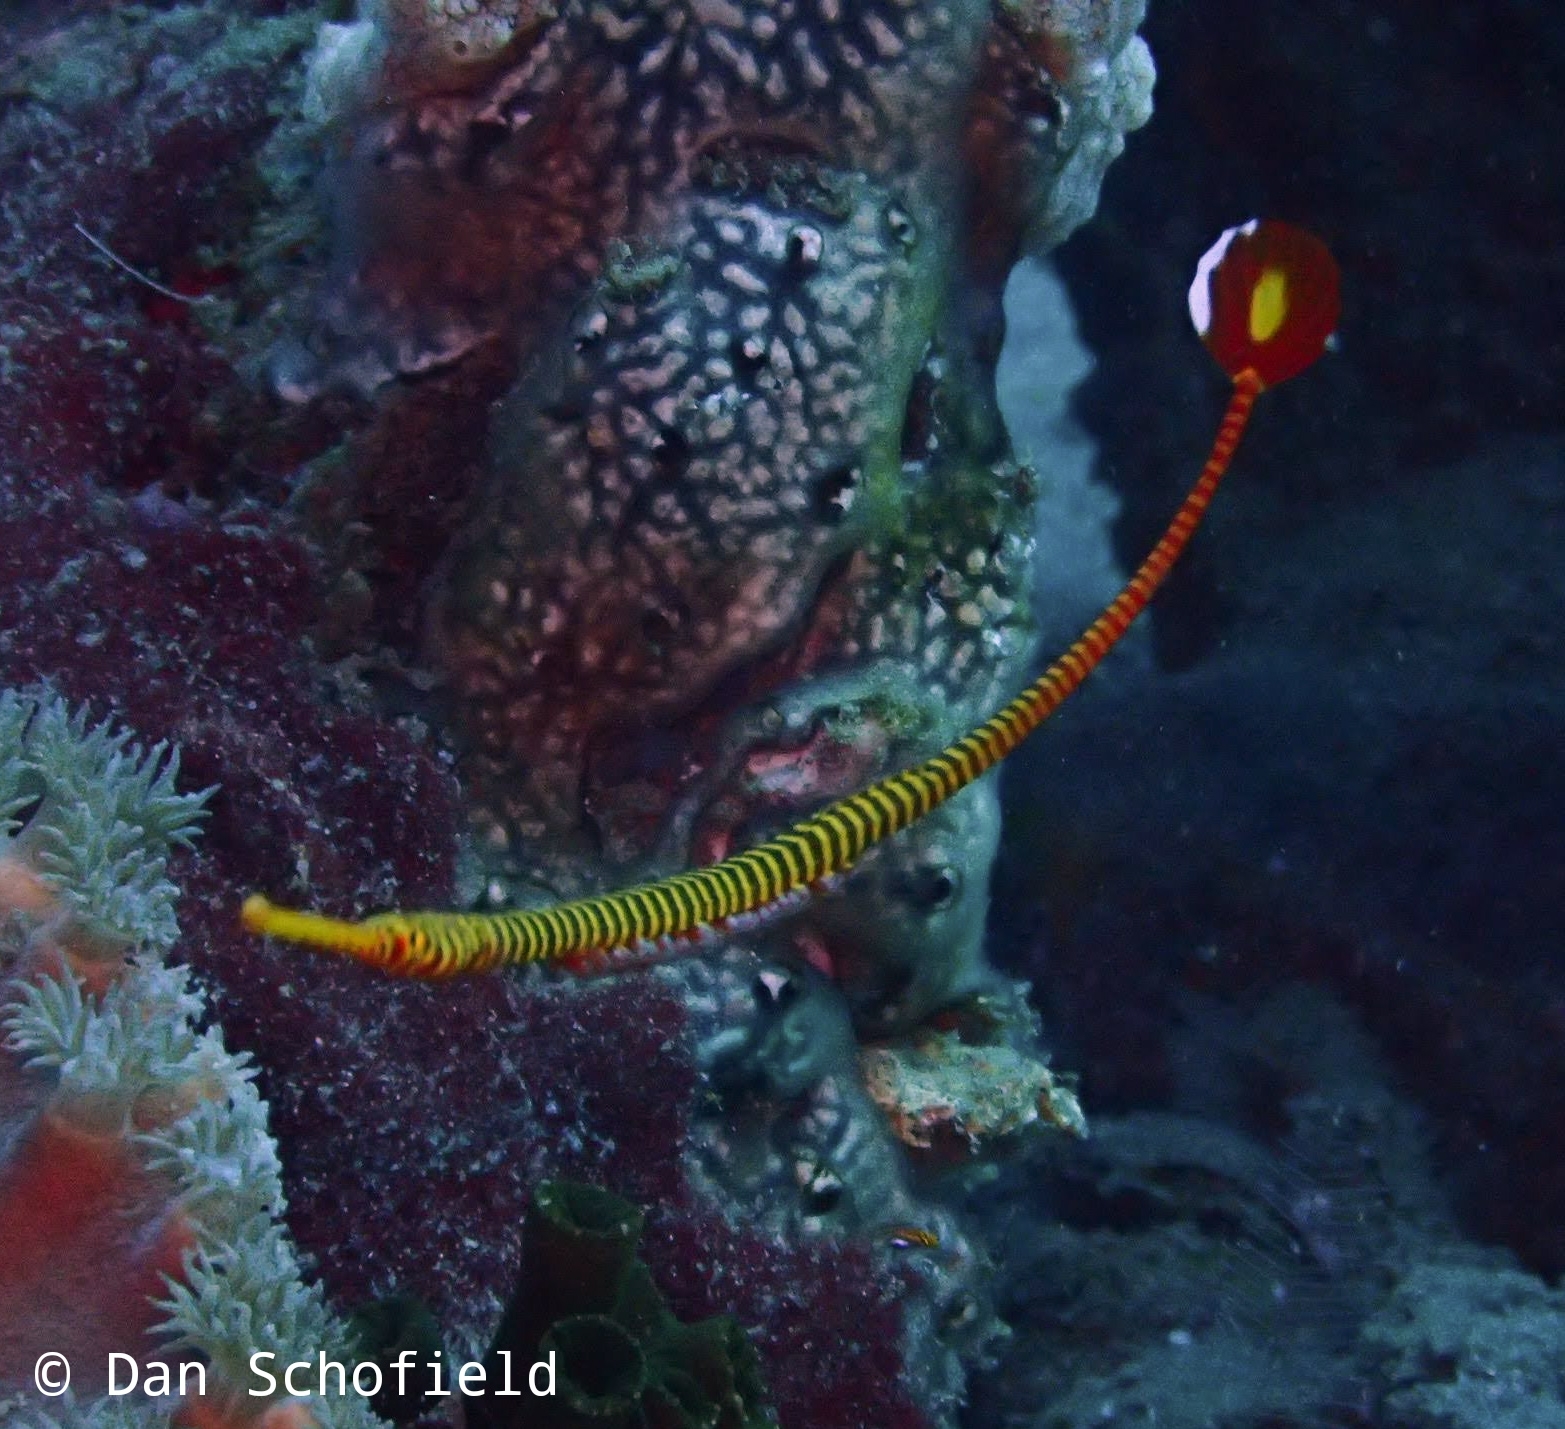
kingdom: Animalia
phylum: Chordata
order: Syngnathiformes
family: Syngnathidae
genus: Dunckerocampus
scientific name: Dunckerocampus pessuliferus
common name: Yellowbanded pipefish
